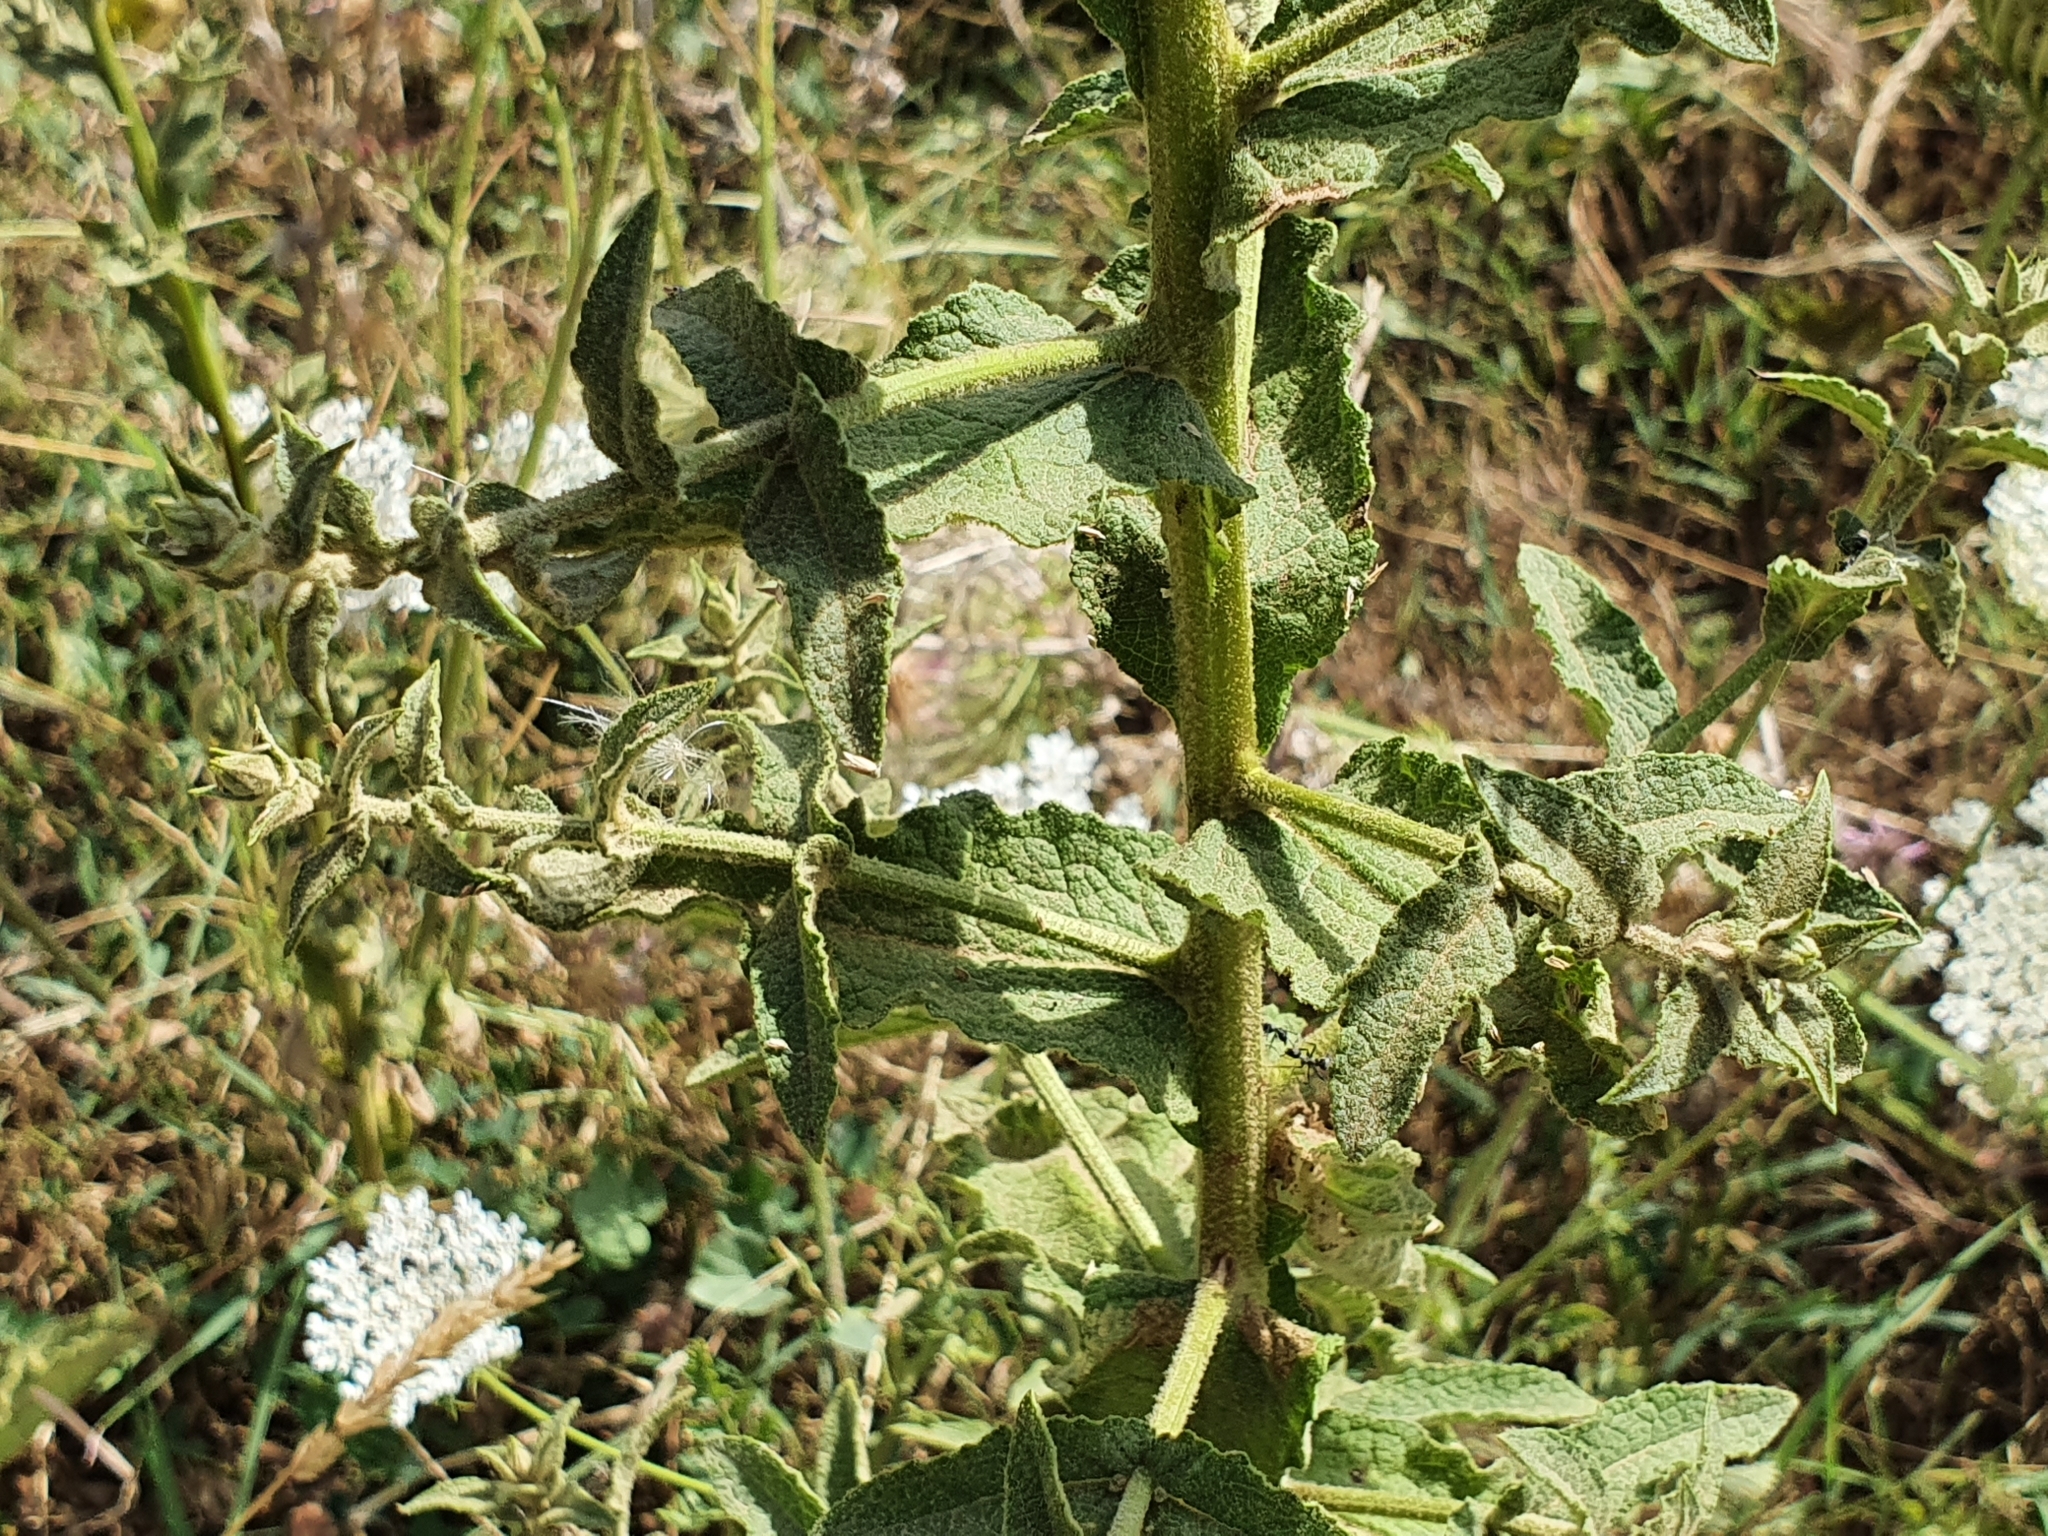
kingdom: Plantae
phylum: Tracheophyta
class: Magnoliopsida
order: Lamiales
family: Scrophulariaceae
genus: Verbascum
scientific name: Verbascum sinuatum
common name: Wavyleaf mullein
